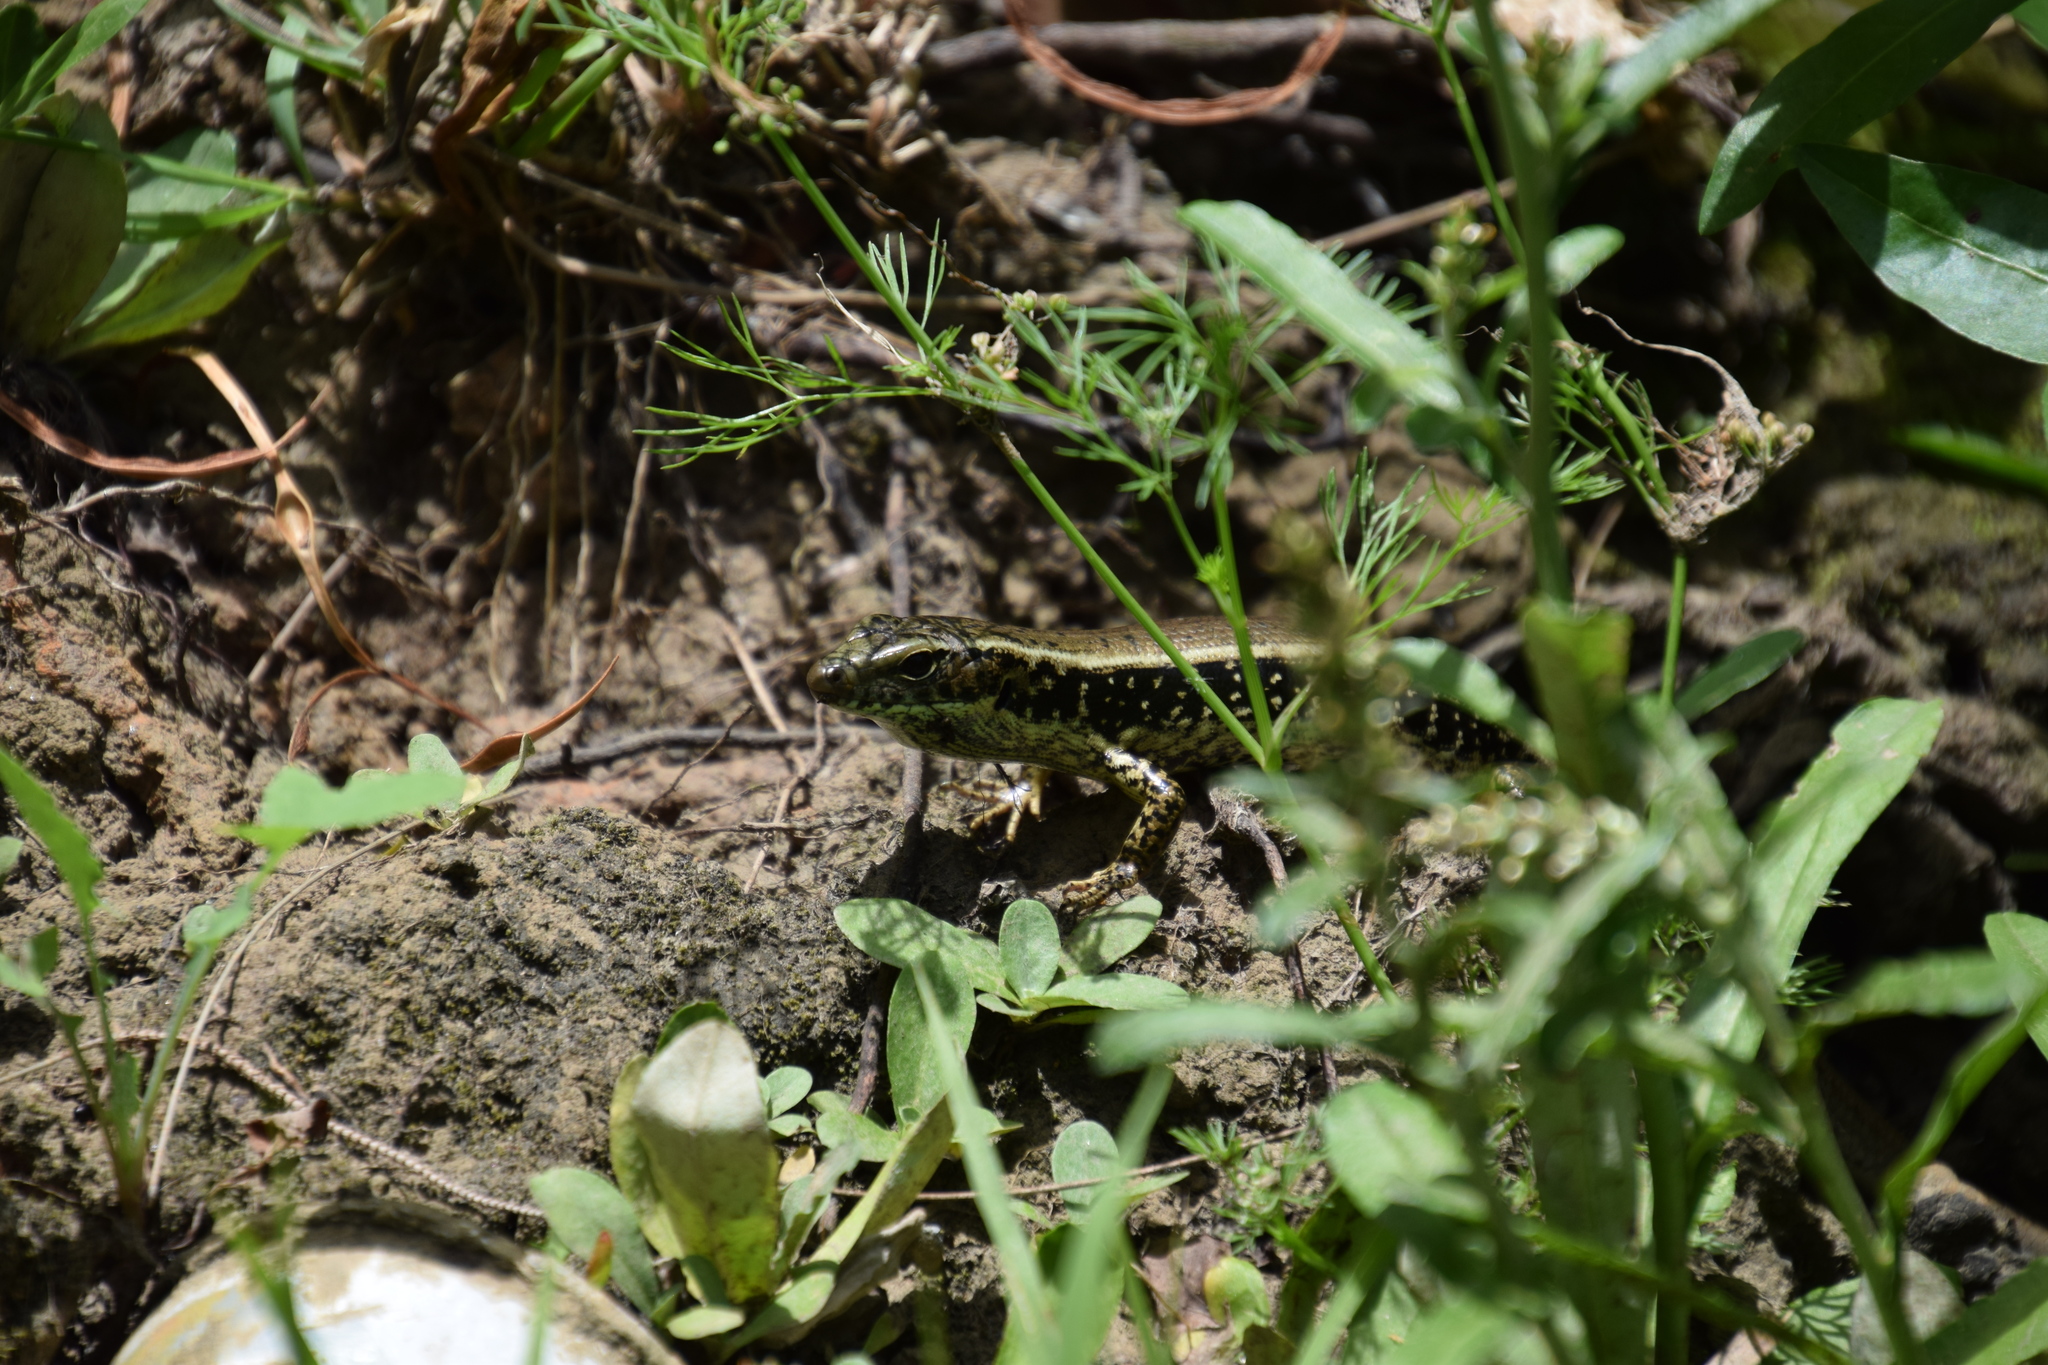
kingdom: Animalia
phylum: Chordata
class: Squamata
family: Scincidae
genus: Eulamprus
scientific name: Eulamprus quoyii
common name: Eastern water skink
